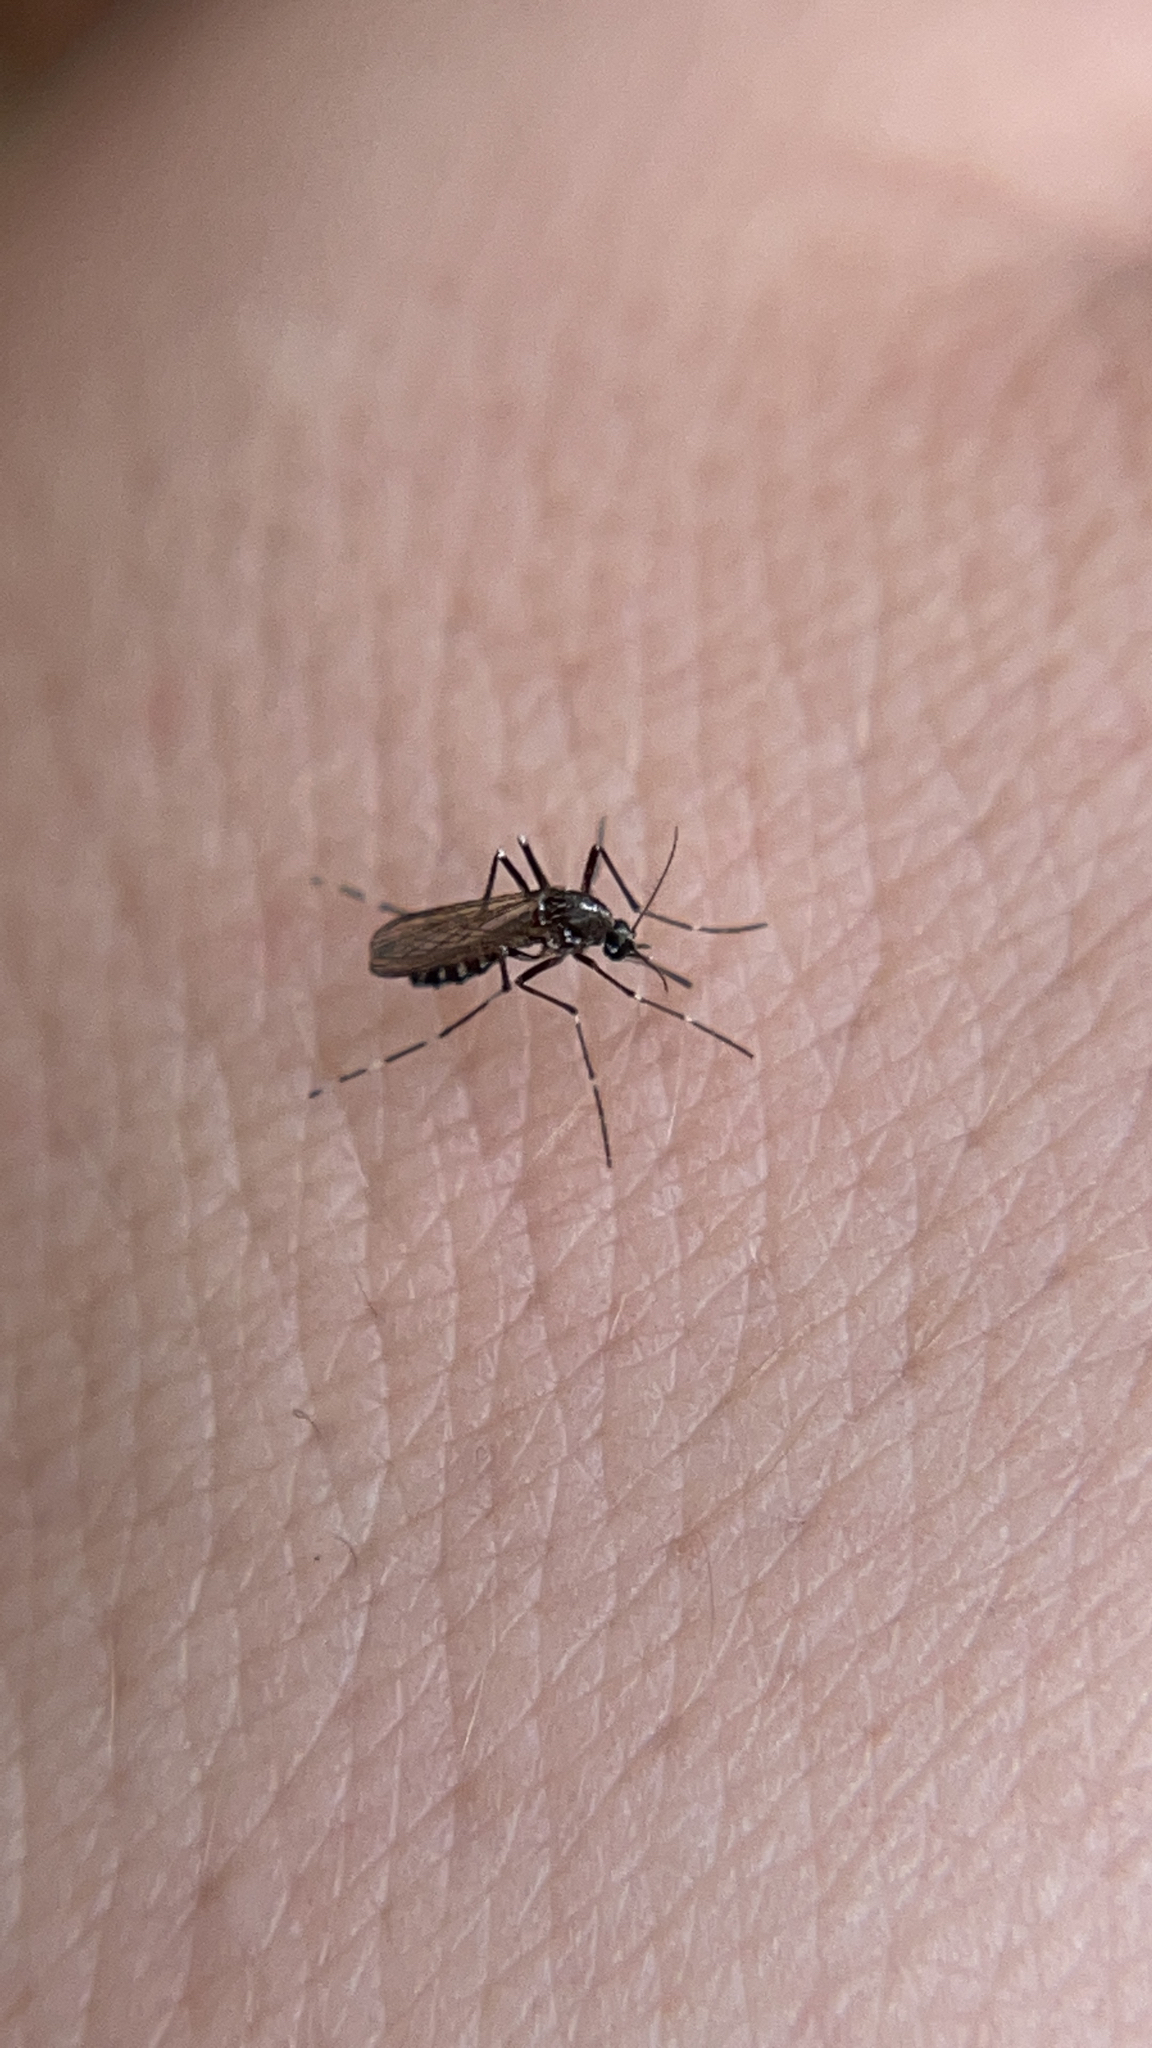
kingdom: Animalia
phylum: Arthropoda
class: Insecta
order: Diptera
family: Culicidae
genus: Aedes
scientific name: Aedes albopictus
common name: Tiger mosquito
